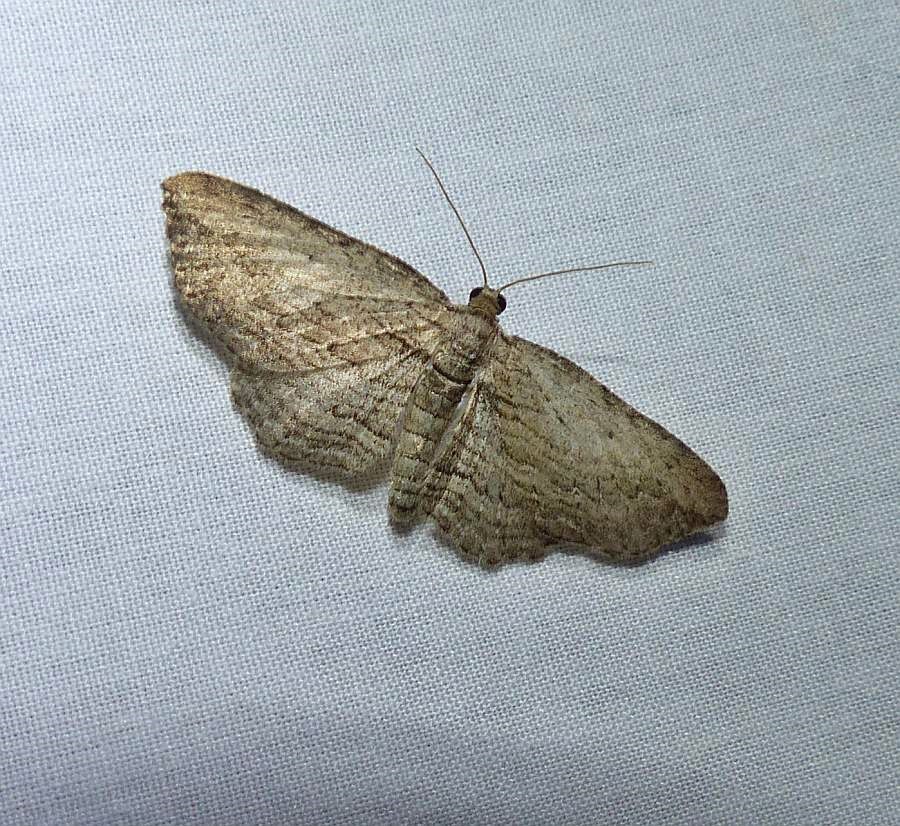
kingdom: Animalia
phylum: Arthropoda
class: Insecta
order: Lepidoptera
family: Geometridae
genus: Horisme
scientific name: Horisme intestinata
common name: Brown bark carpet
